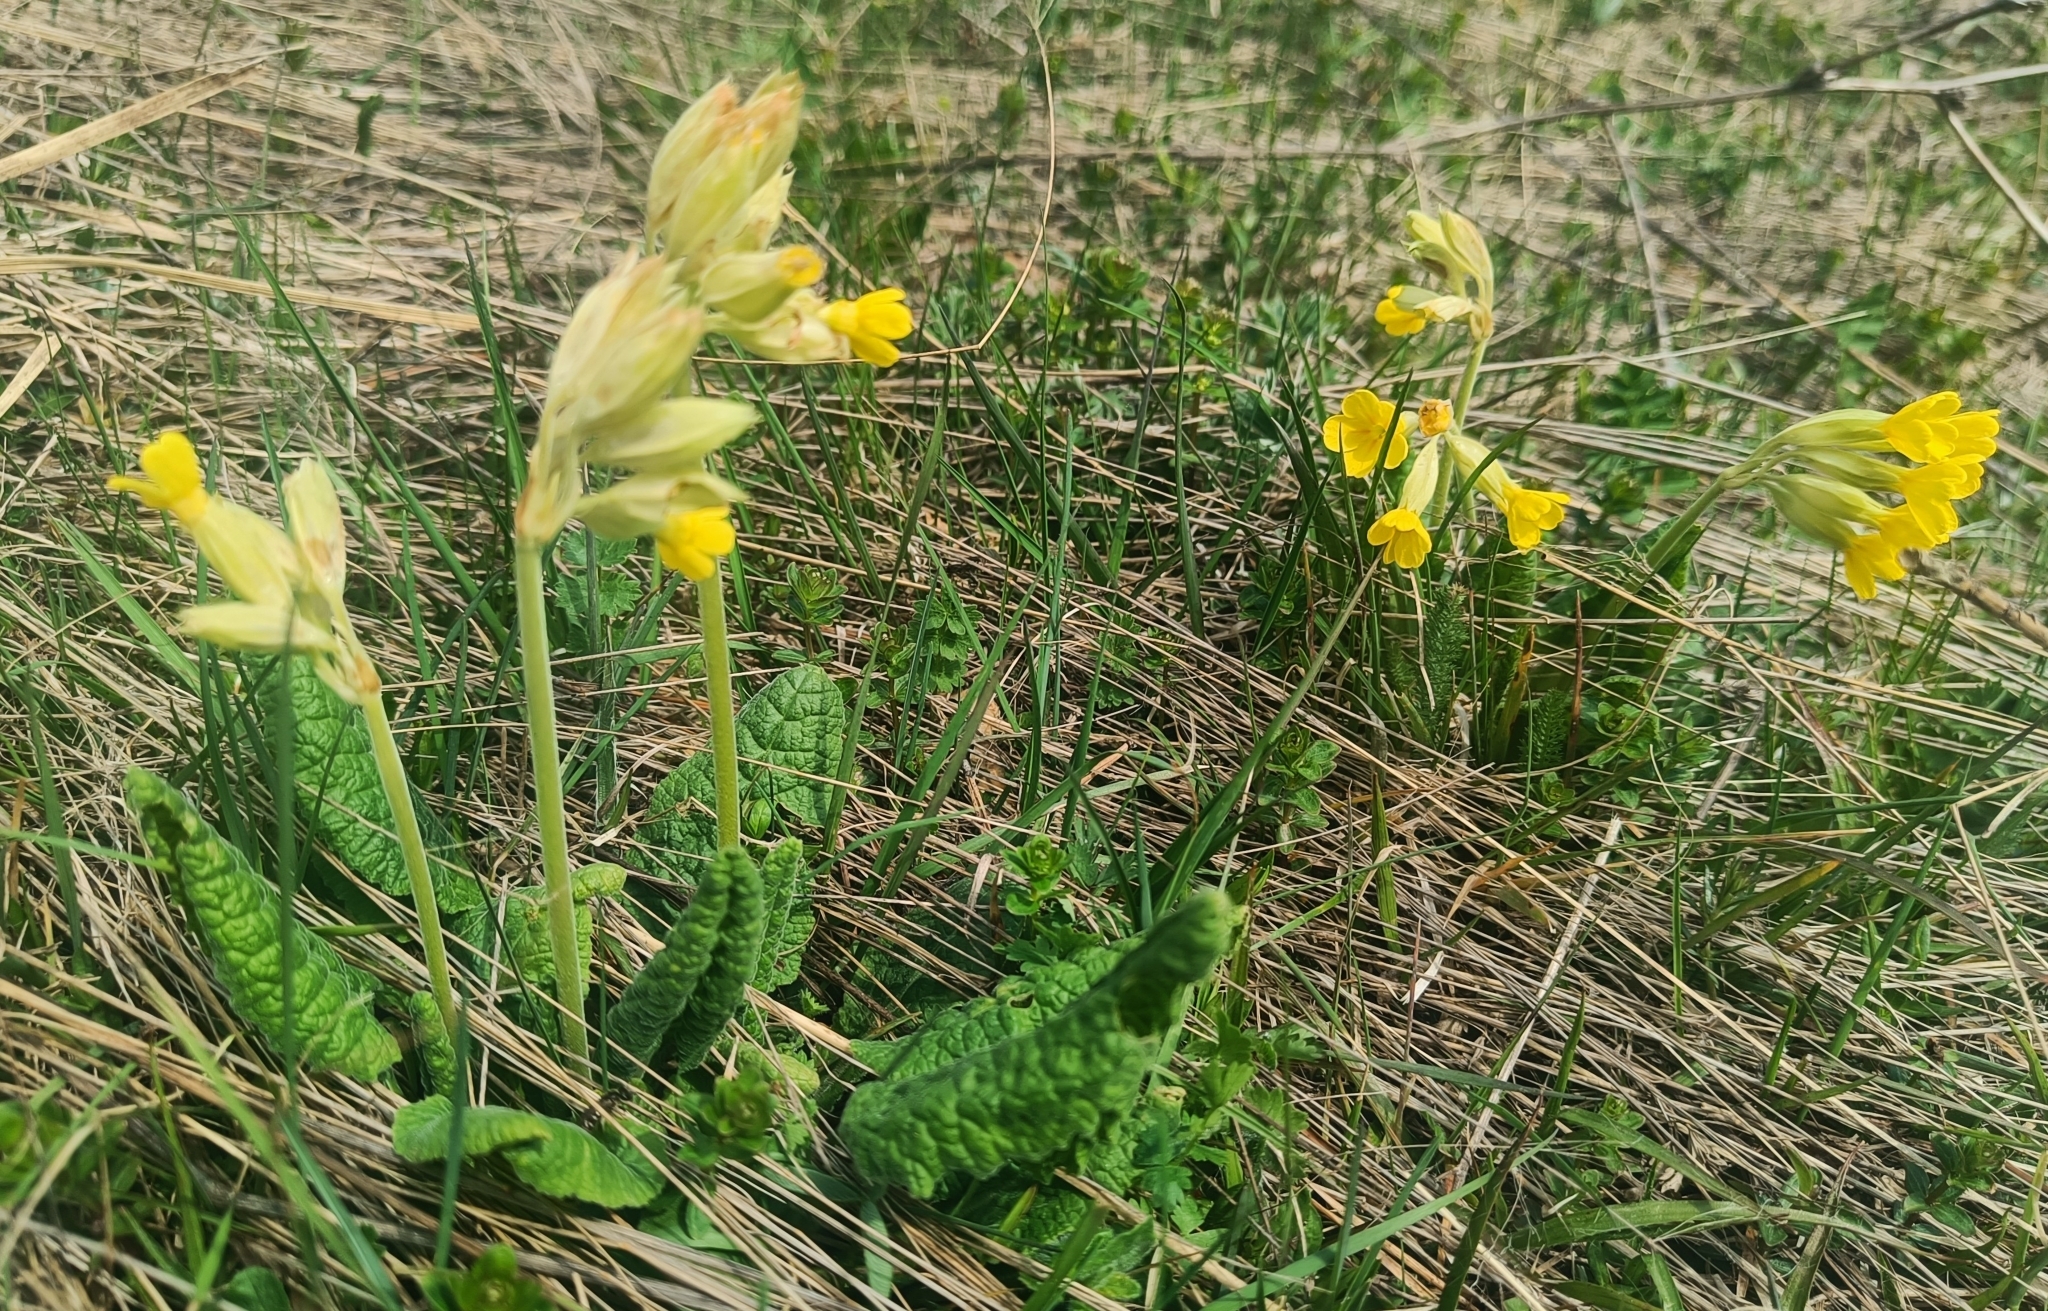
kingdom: Plantae
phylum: Tracheophyta
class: Magnoliopsida
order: Ericales
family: Primulaceae
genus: Primula
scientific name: Primula veris
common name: Cowslip
